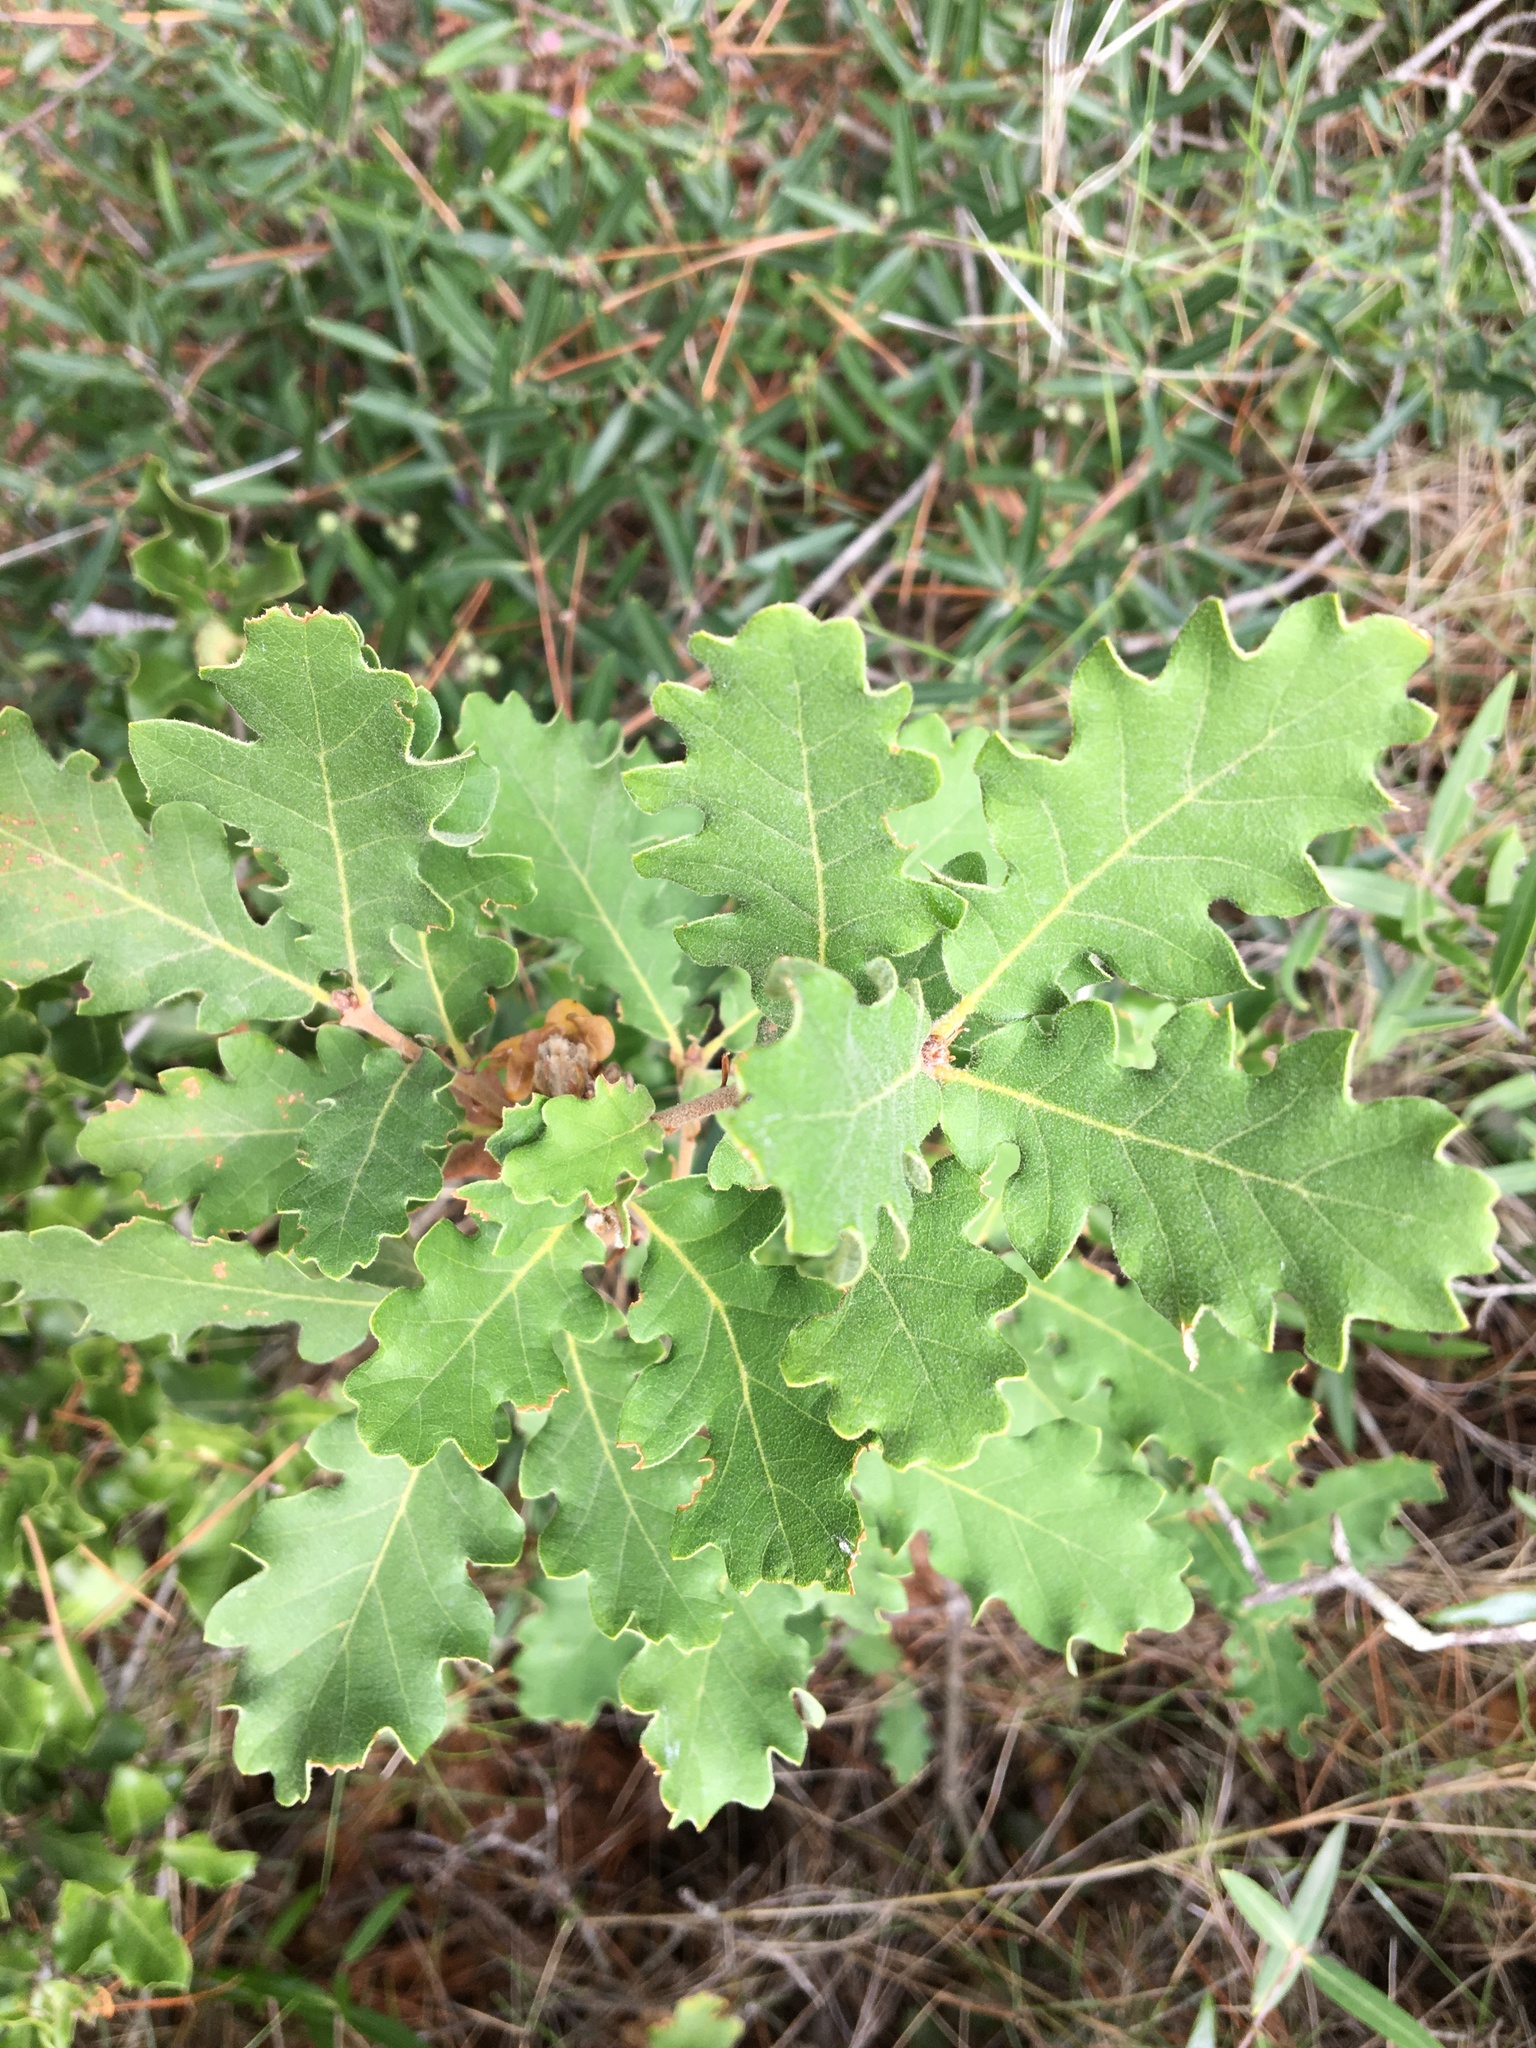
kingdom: Plantae
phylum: Tracheophyta
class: Magnoliopsida
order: Fagales
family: Fagaceae
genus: Quercus
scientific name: Quercus pubescens
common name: Downy oak
